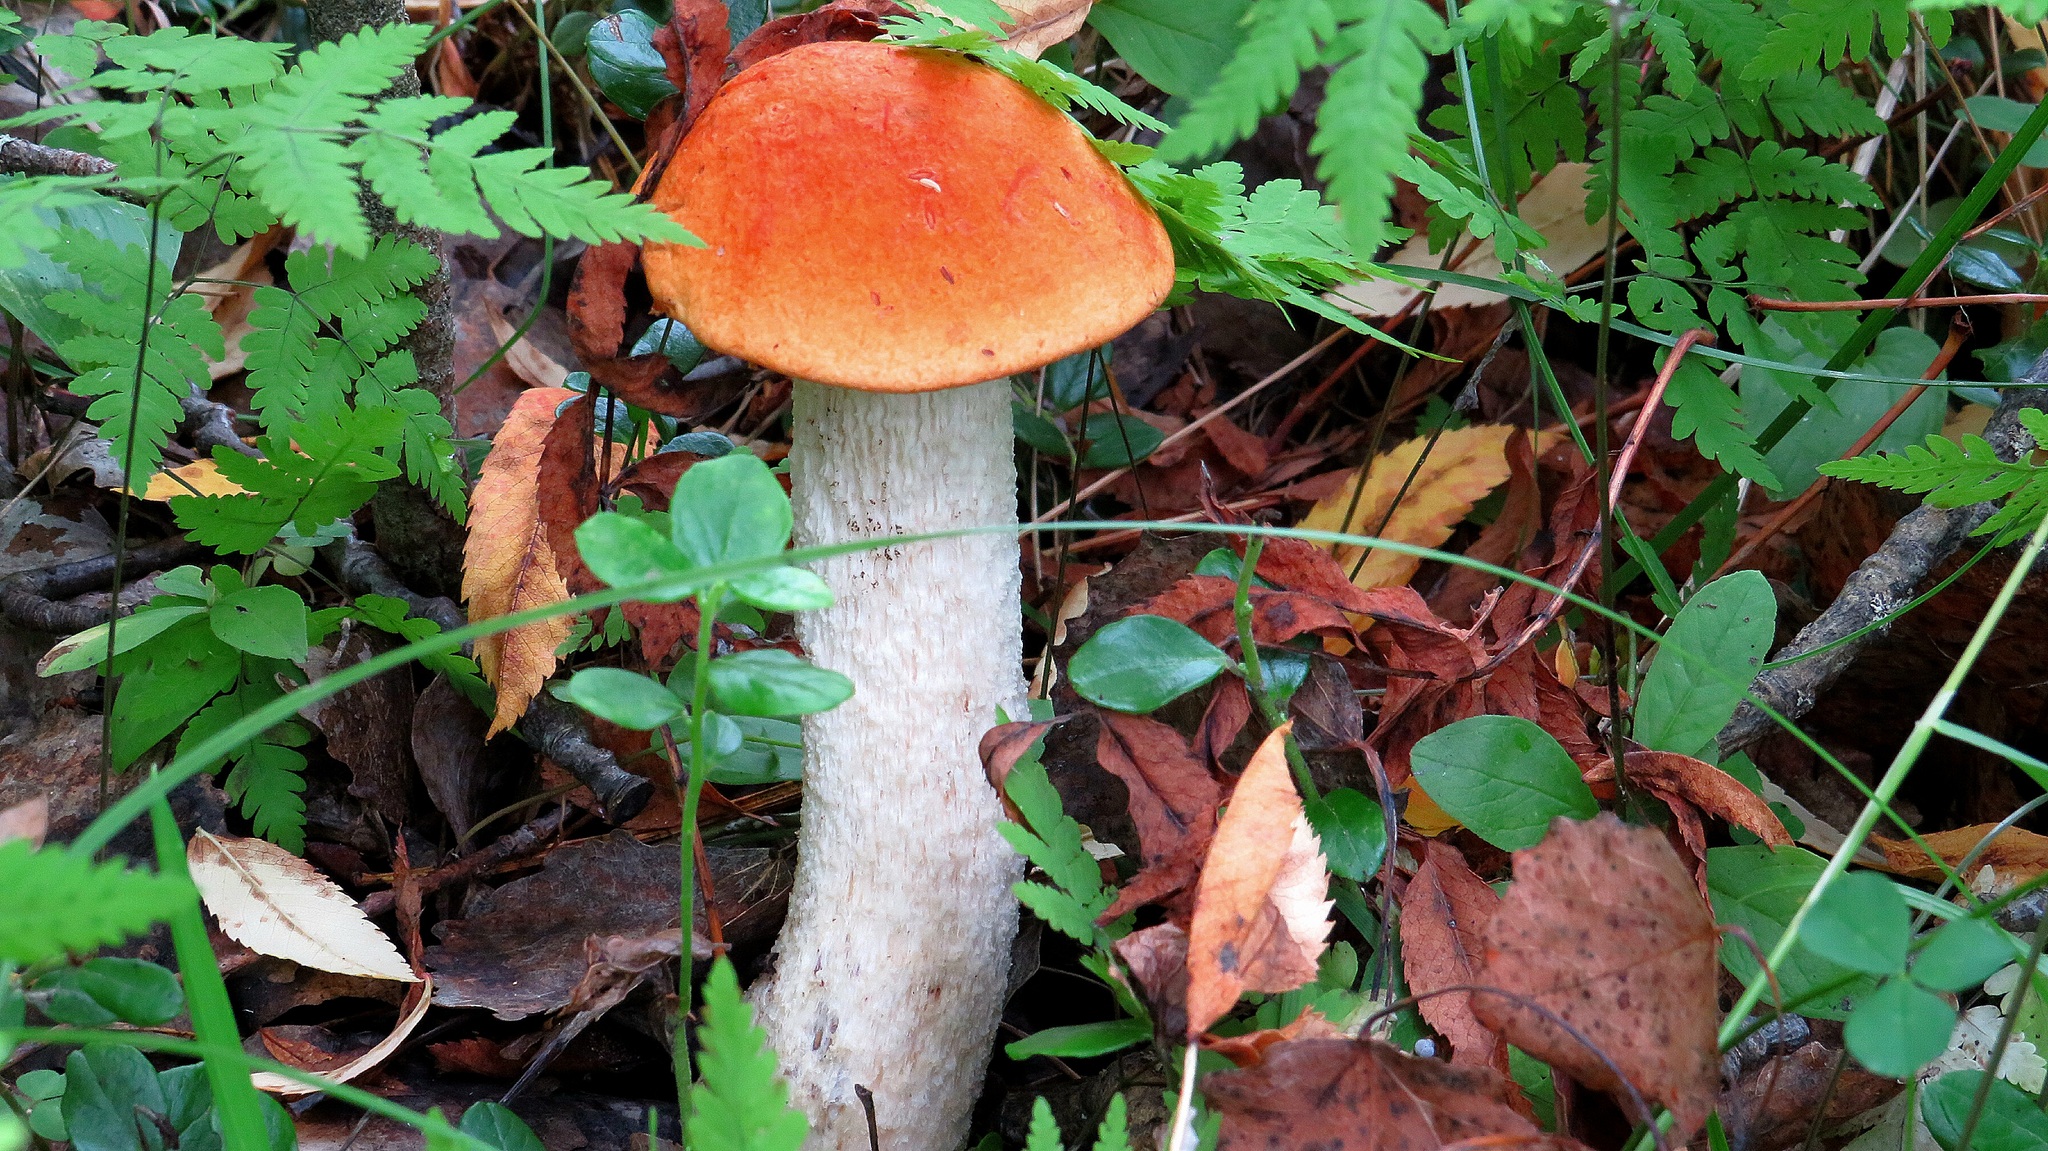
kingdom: Fungi
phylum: Basidiomycota
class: Agaricomycetes
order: Boletales
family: Boletaceae
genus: Leccinum
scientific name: Leccinum albostipitatum
